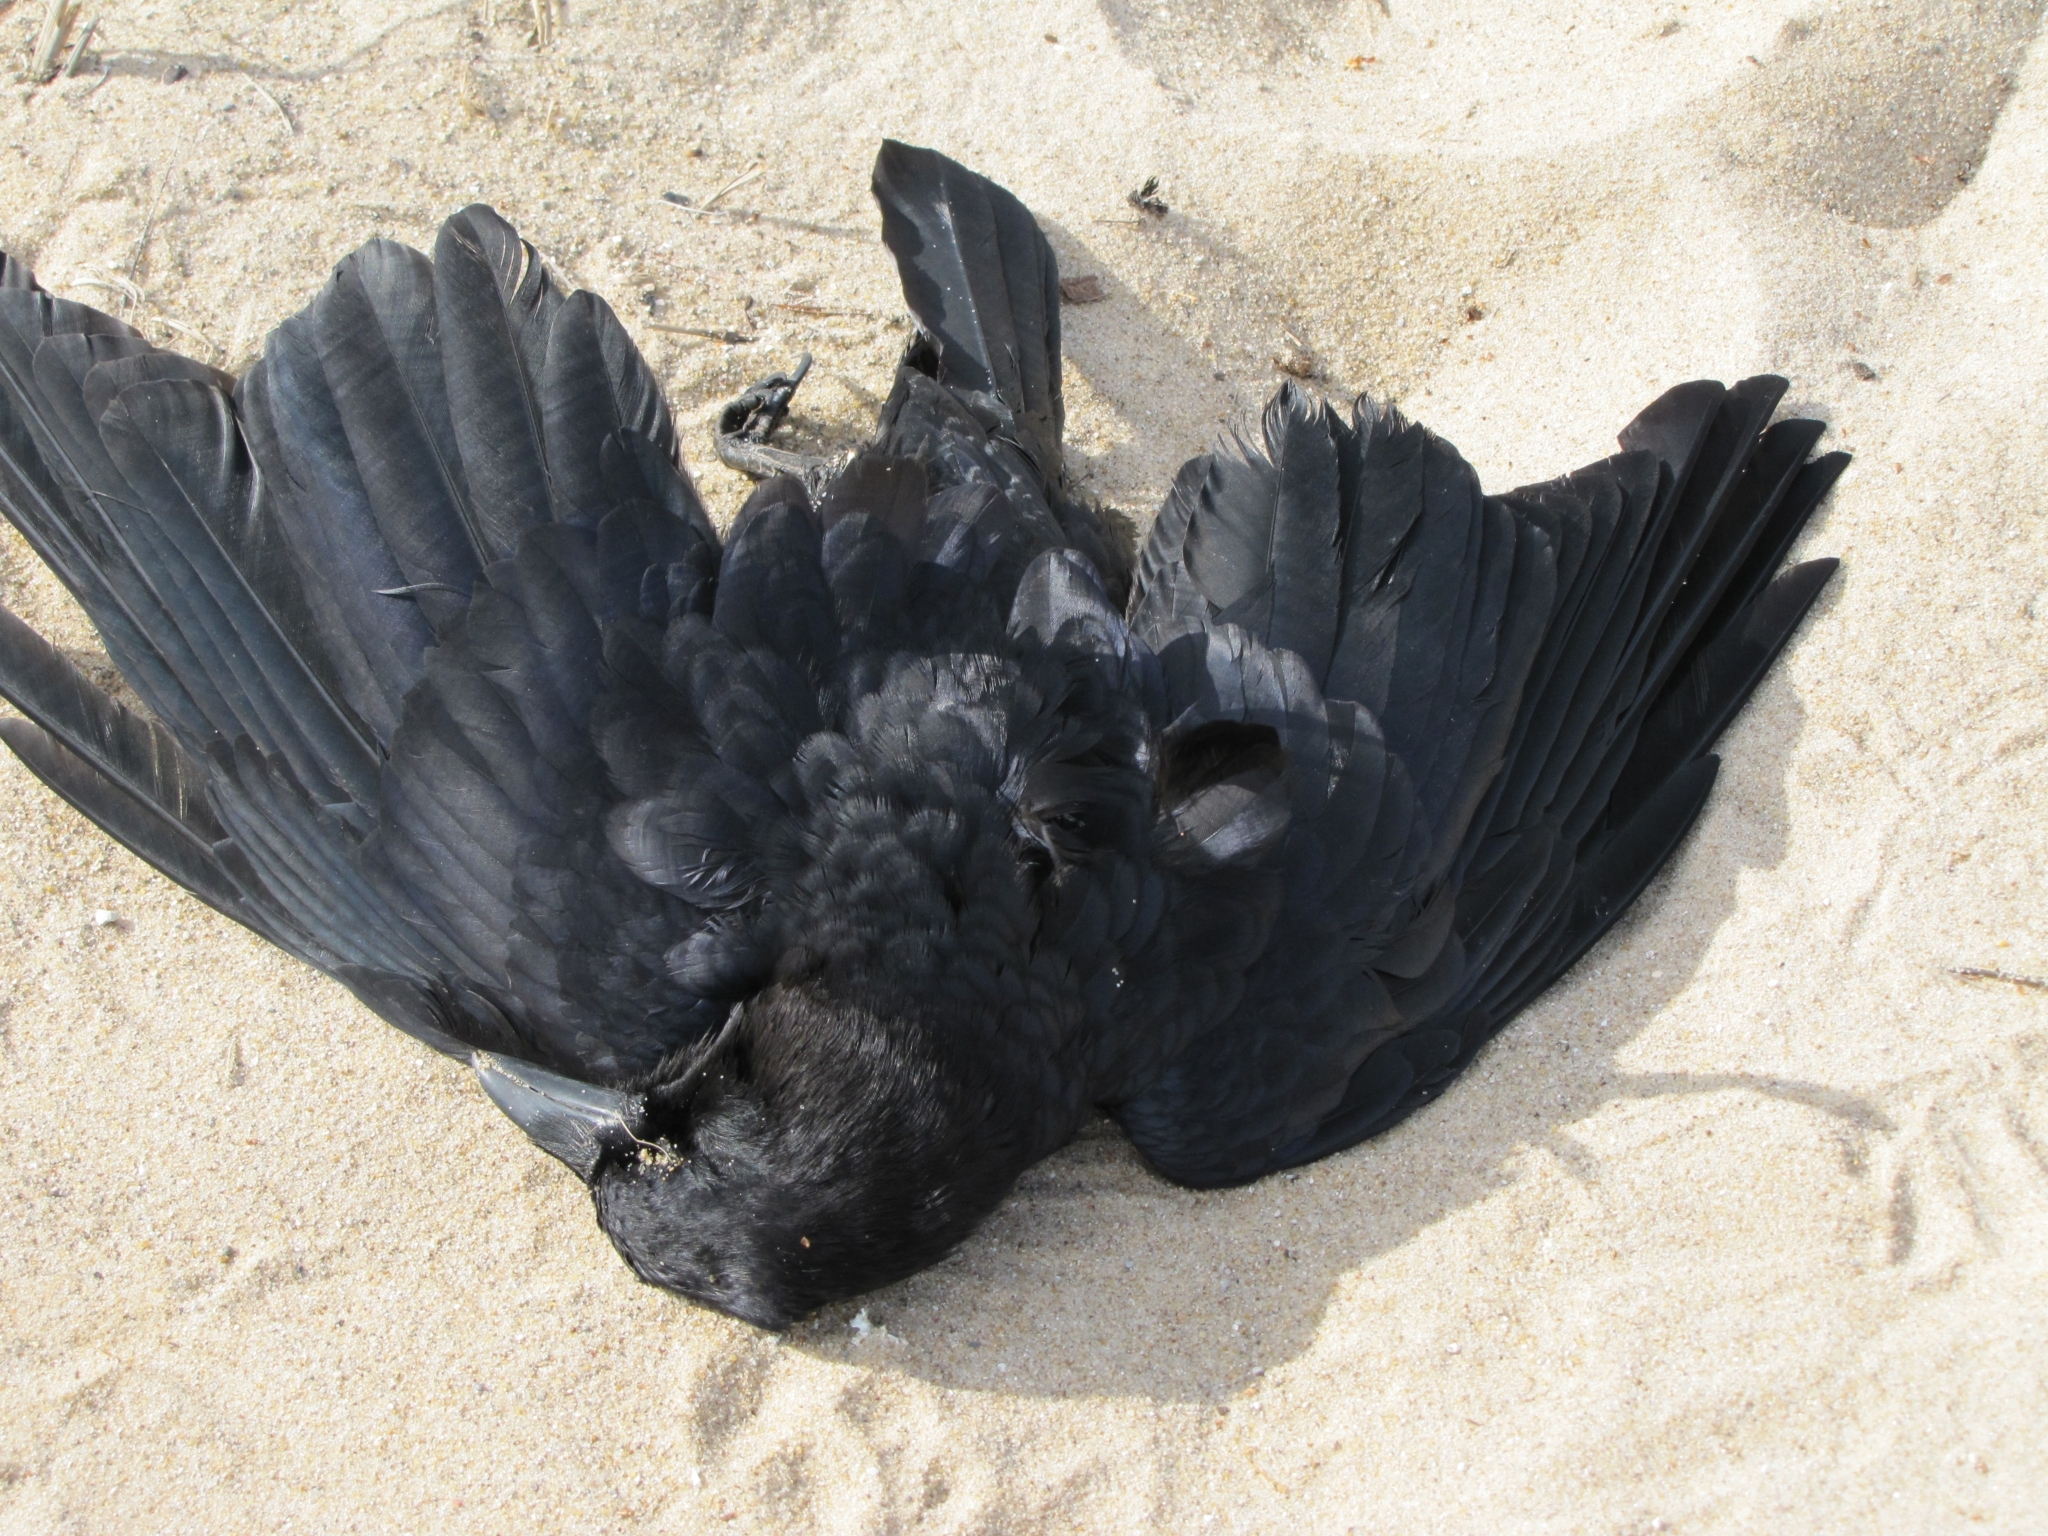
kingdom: Animalia
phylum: Chordata
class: Aves
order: Passeriformes
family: Corvidae
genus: Corvus
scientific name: Corvus brachyrhynchos
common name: American crow
